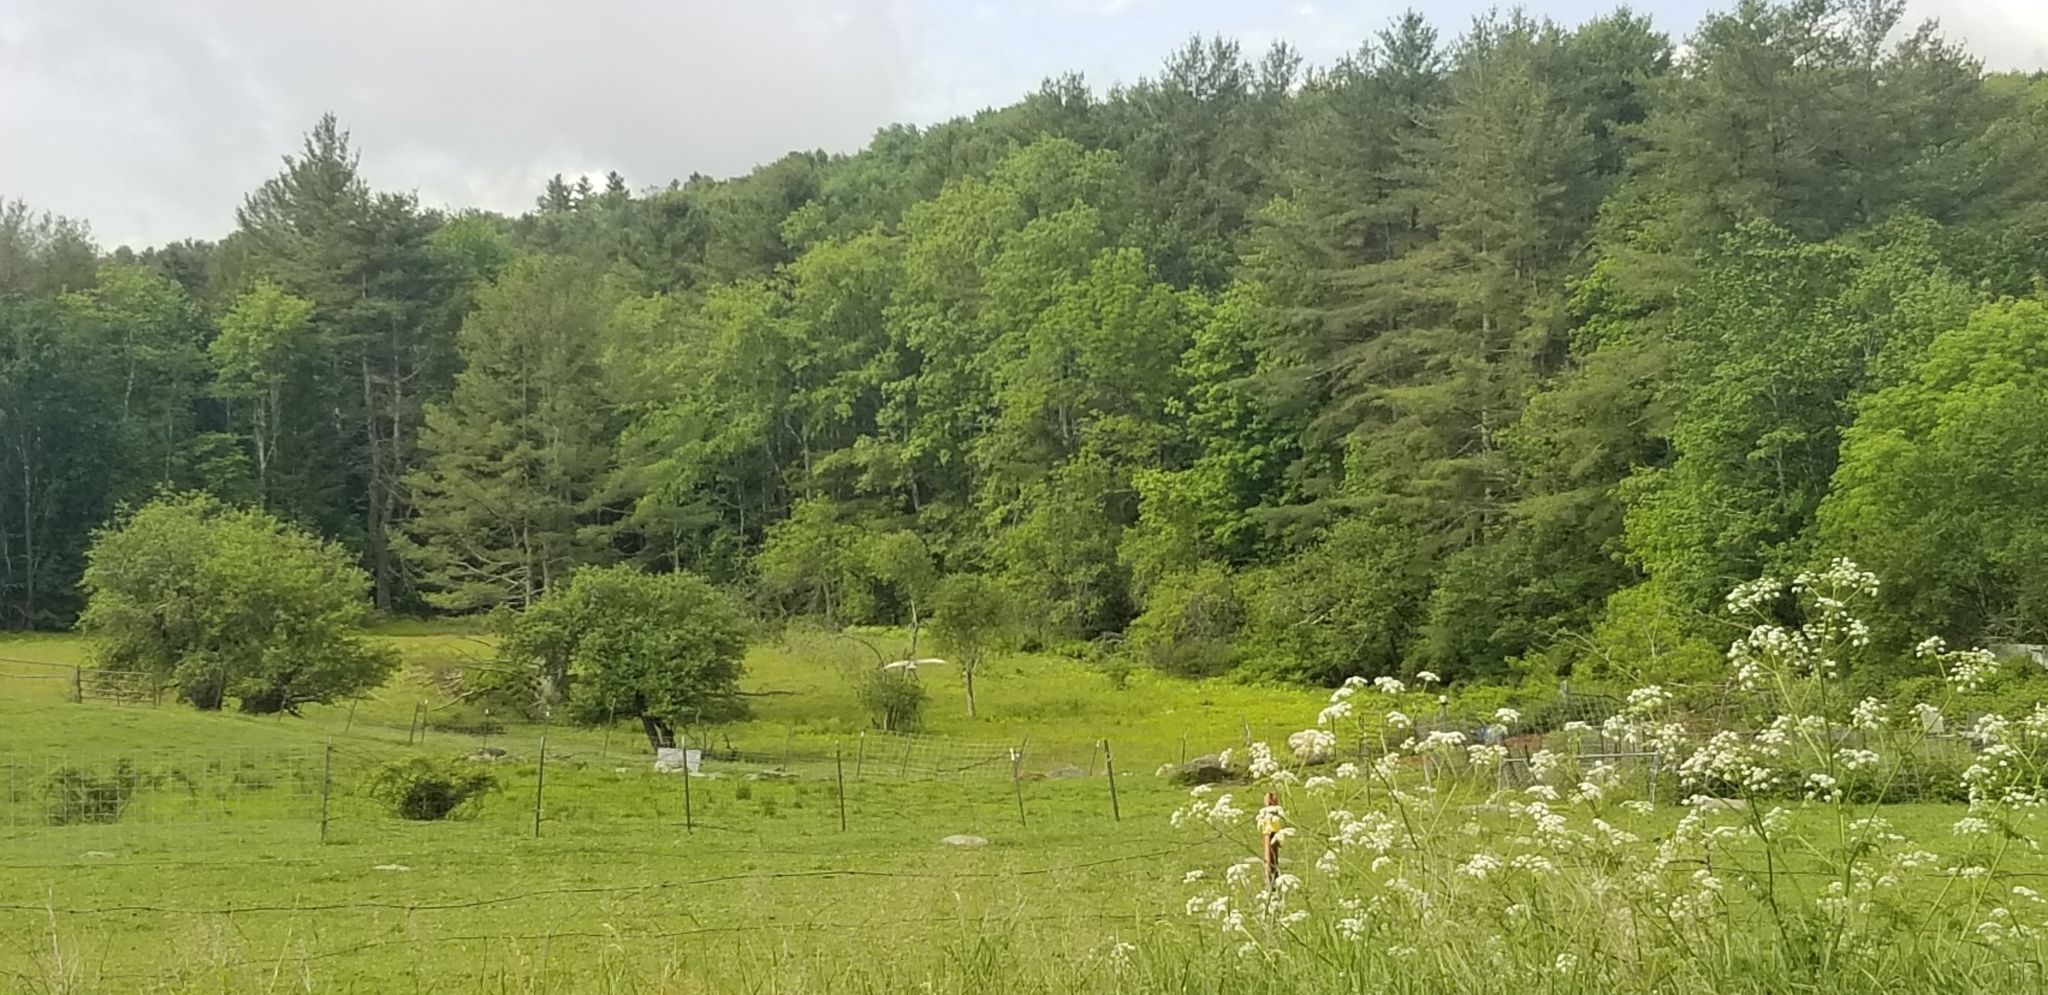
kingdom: Animalia
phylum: Chordata
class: Aves
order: Gruiformes
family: Gruidae
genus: Grus
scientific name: Grus canadensis
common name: Sandhill crane
